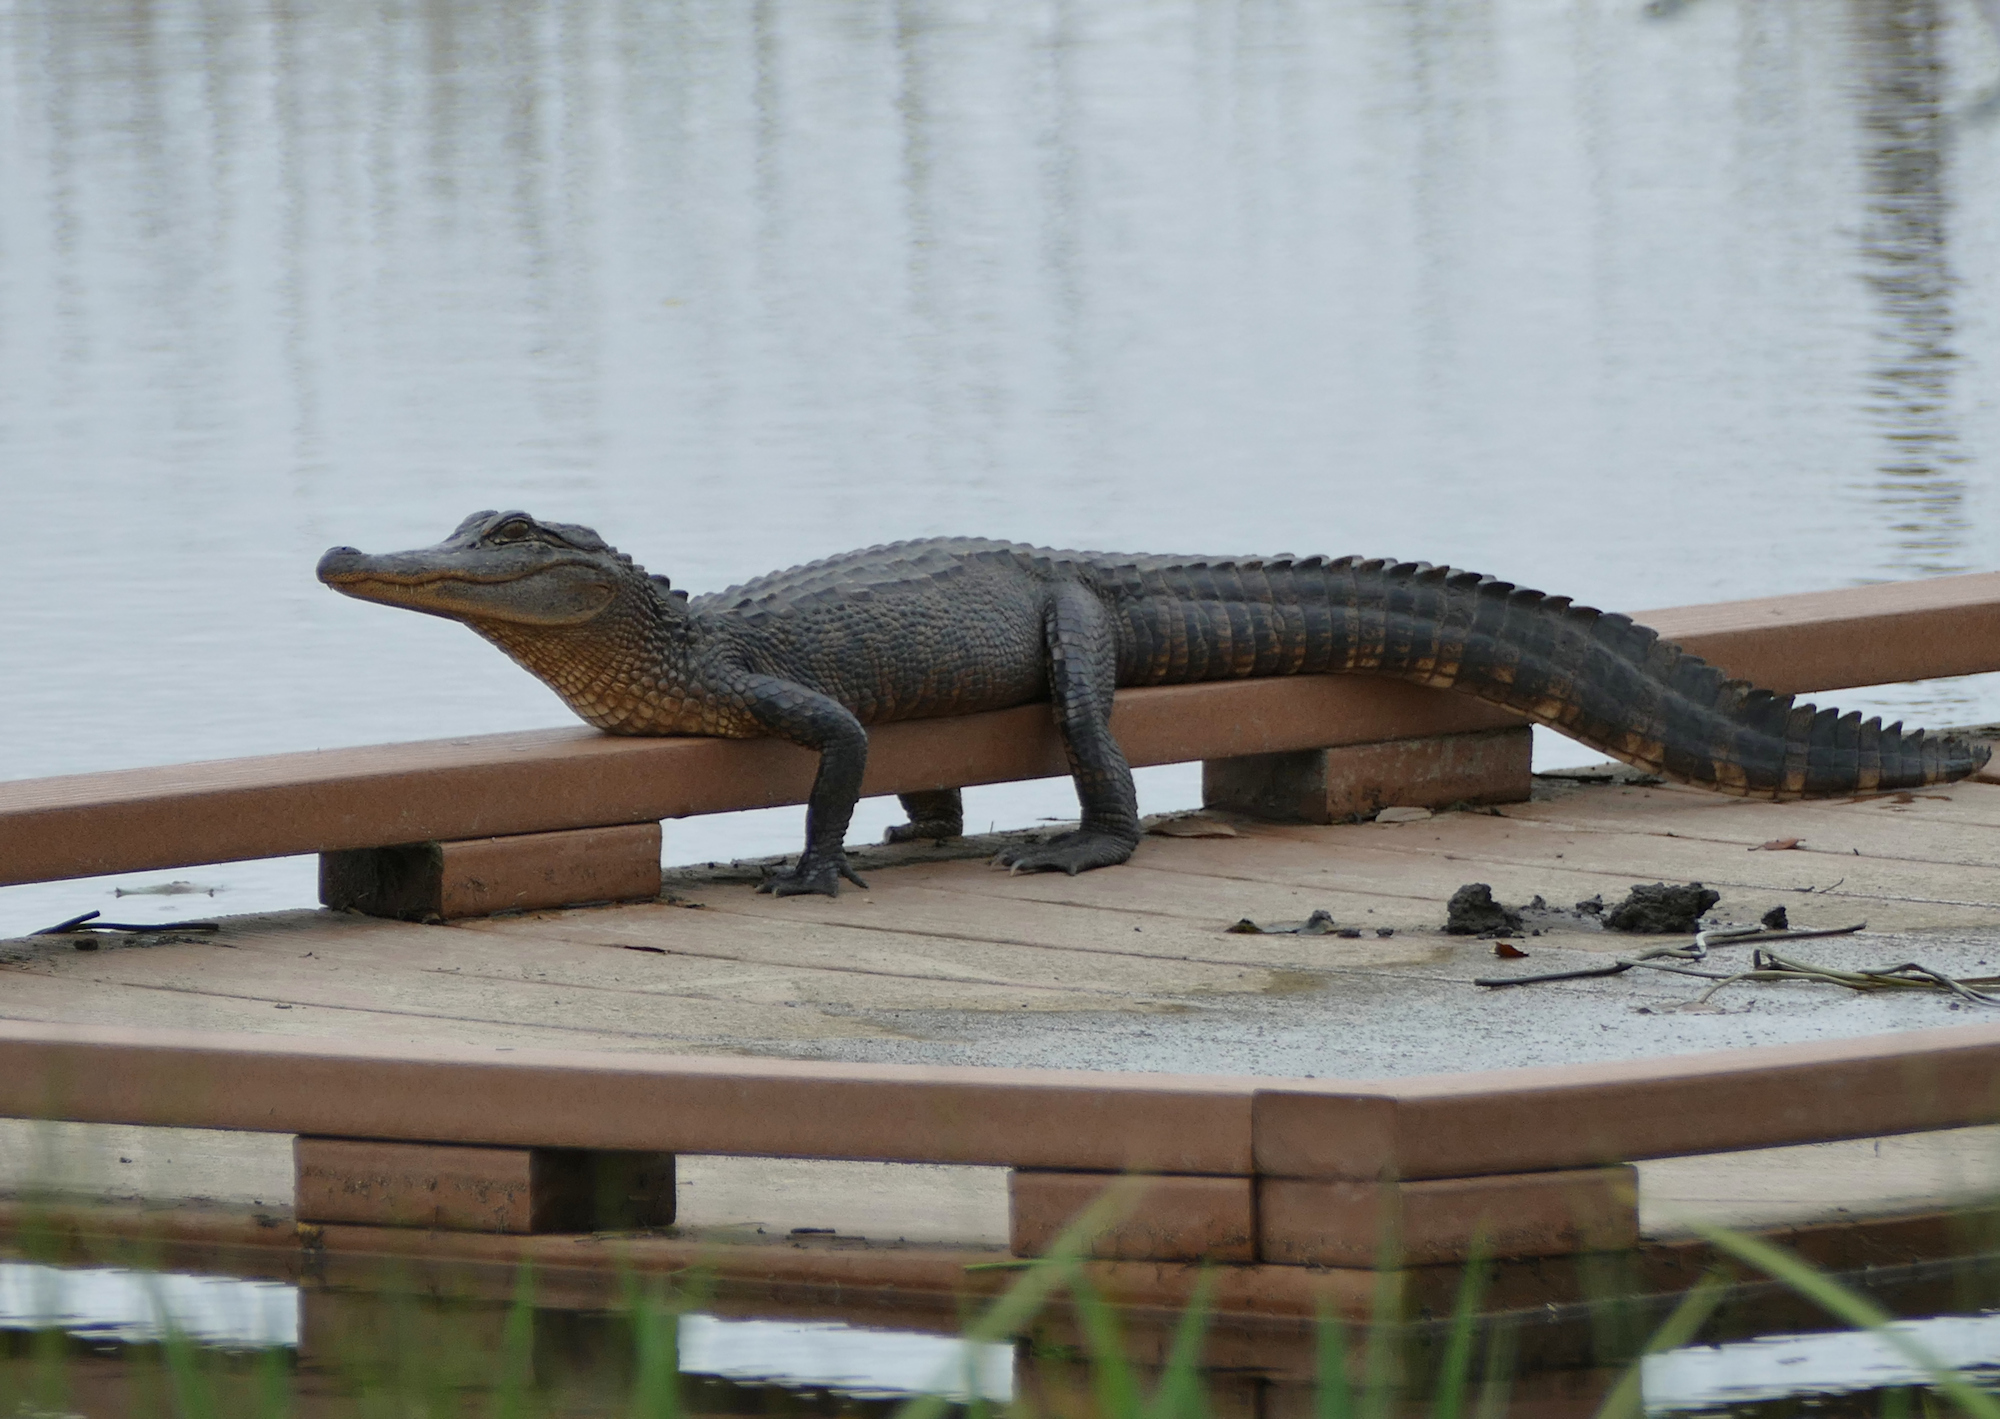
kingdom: Animalia
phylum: Chordata
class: Crocodylia
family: Alligatoridae
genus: Alligator
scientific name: Alligator mississippiensis
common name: American alligator
